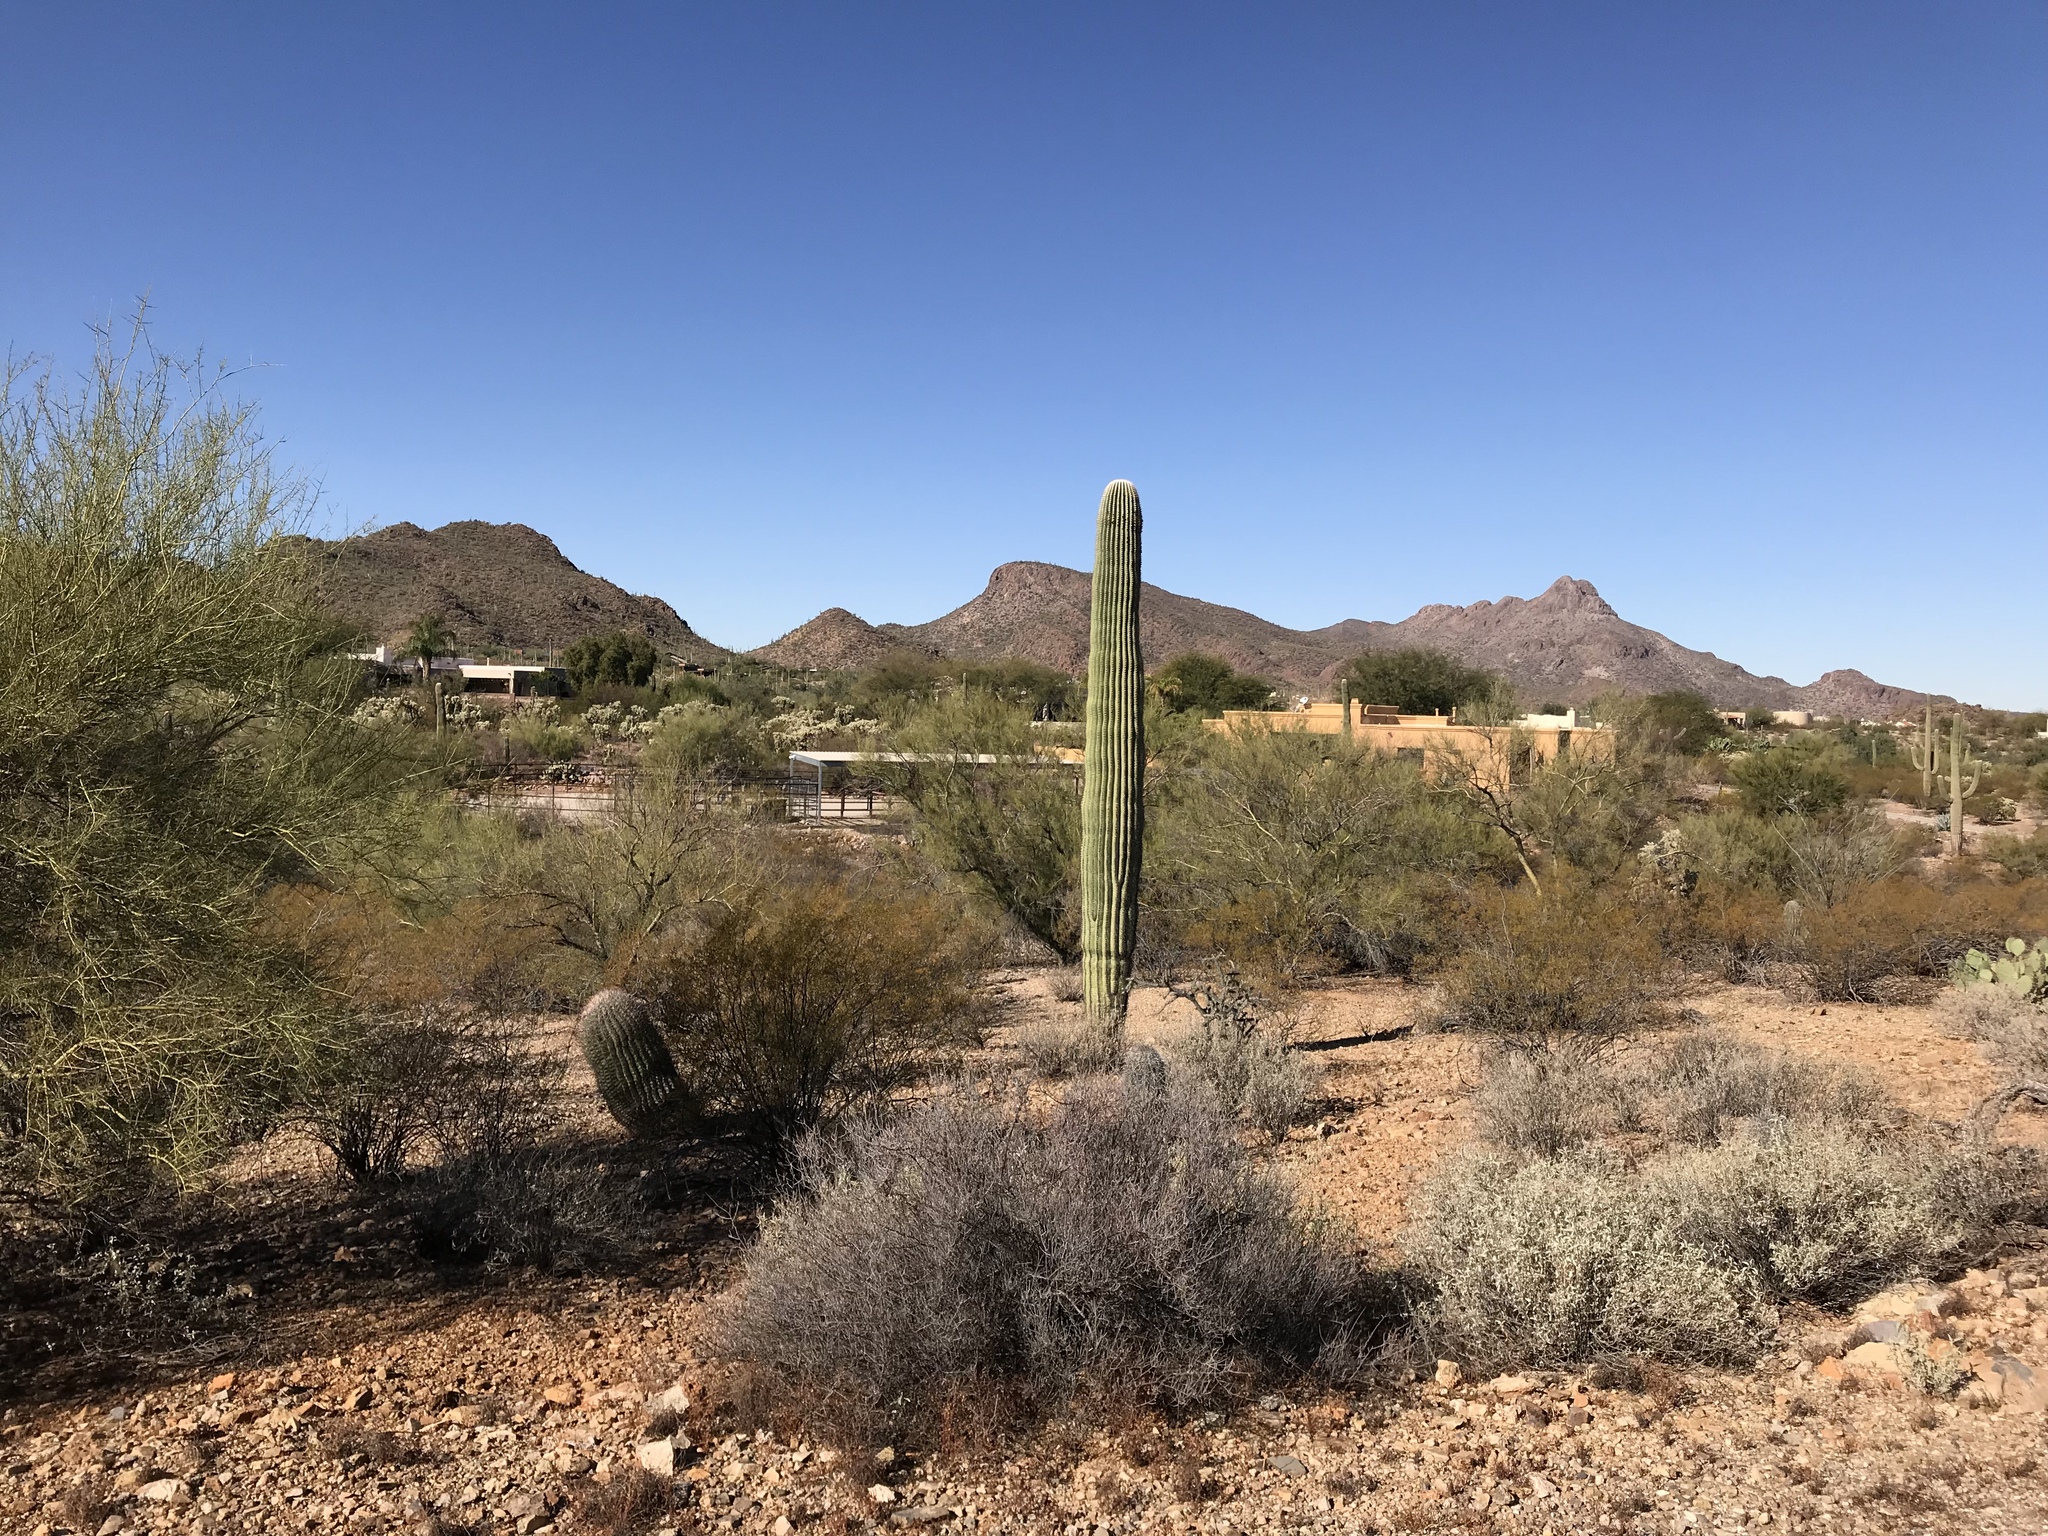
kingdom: Plantae
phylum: Tracheophyta
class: Magnoliopsida
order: Caryophyllales
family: Cactaceae
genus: Carnegiea
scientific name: Carnegiea gigantea
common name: Saguaro
